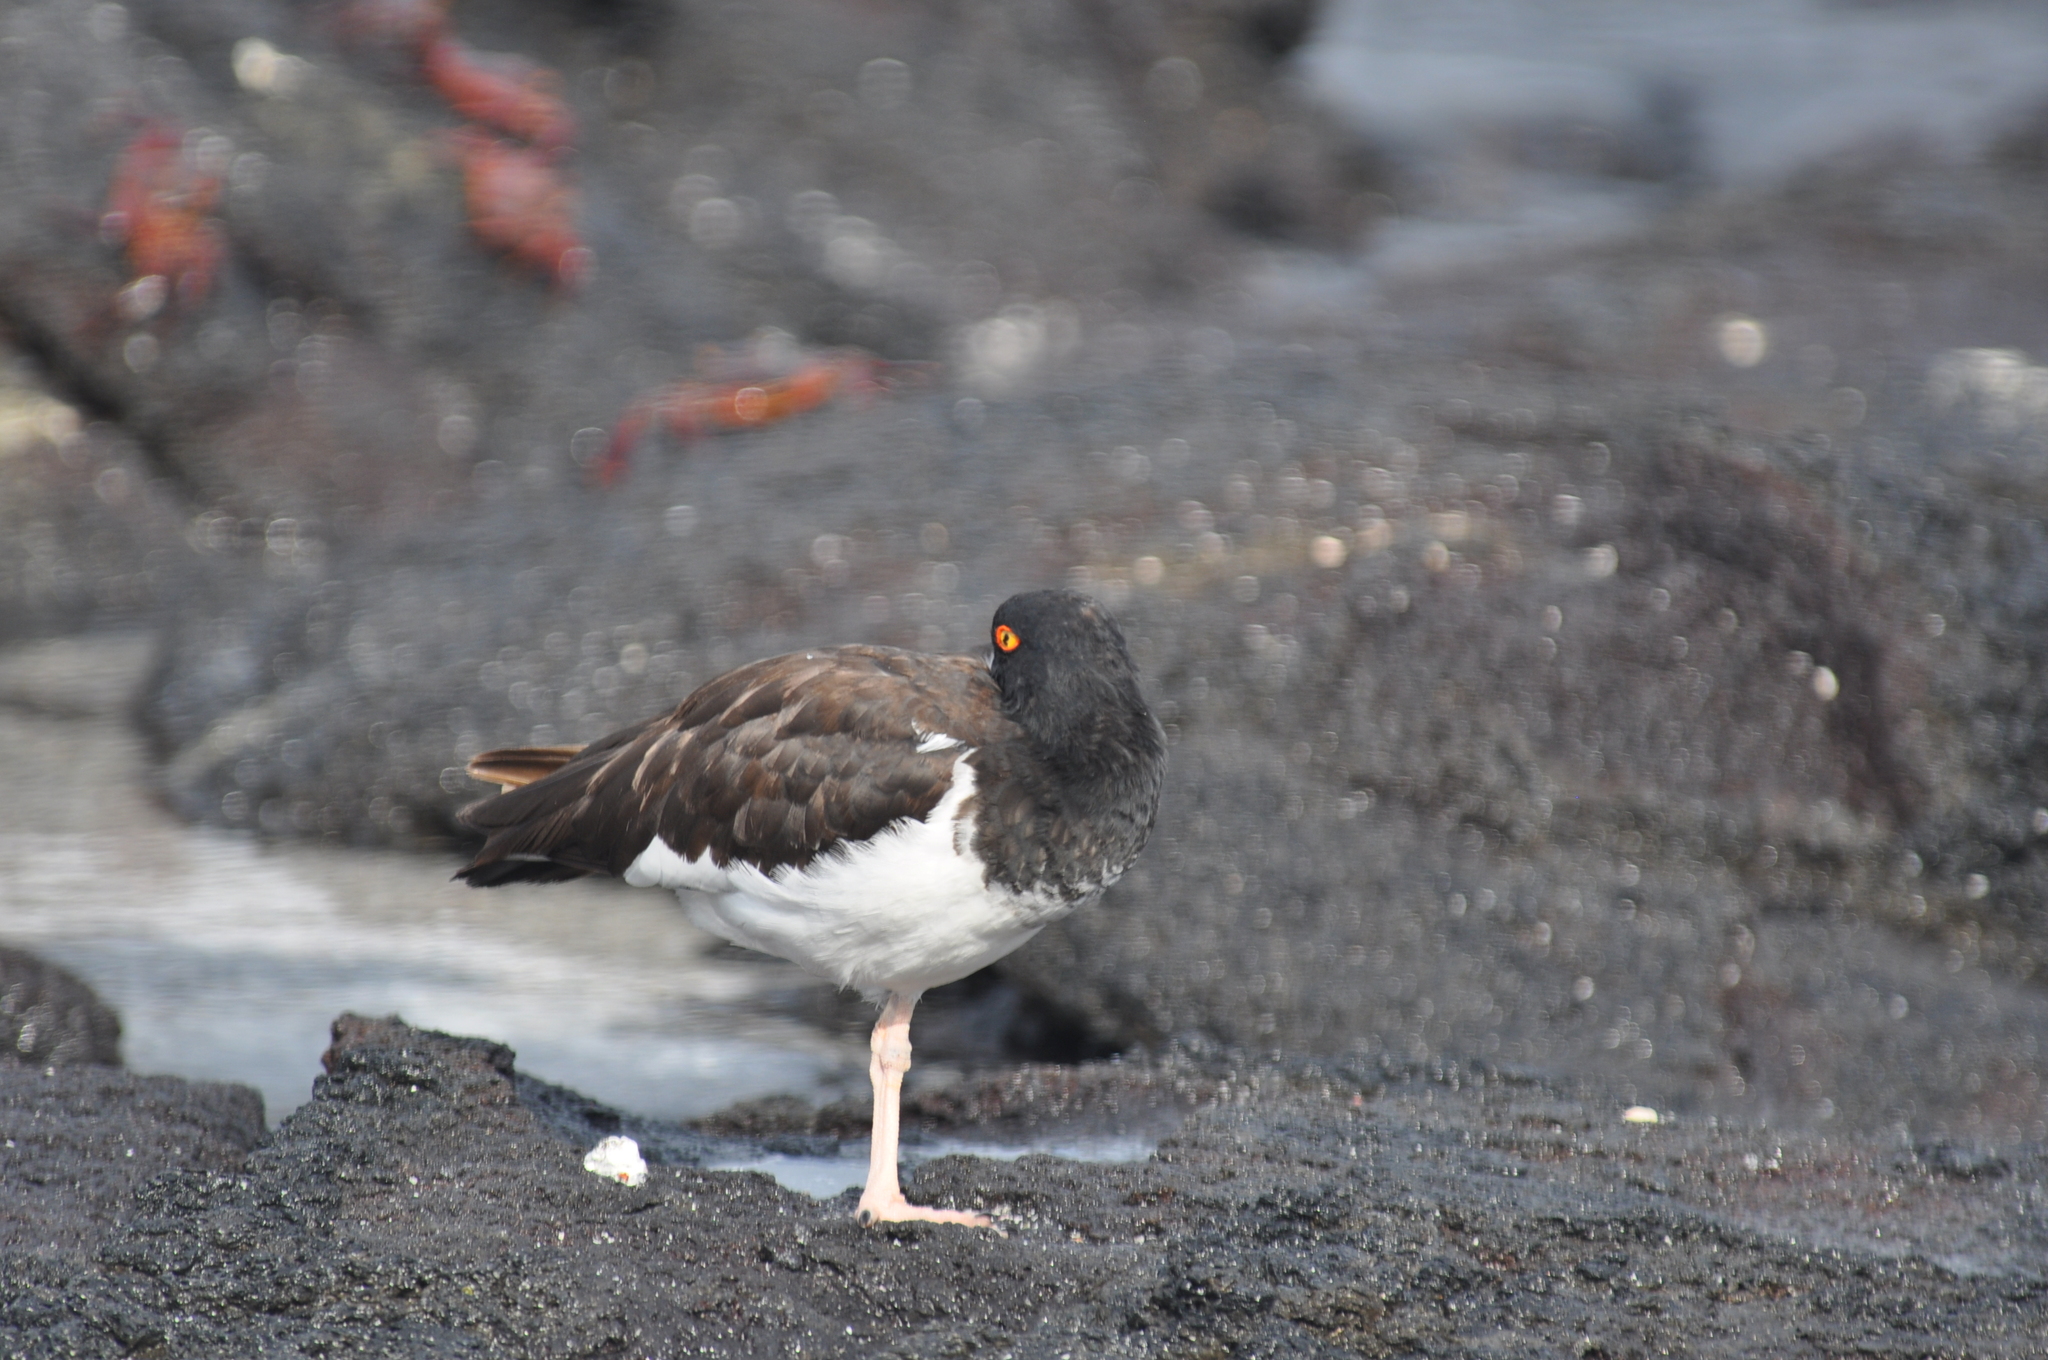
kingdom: Animalia
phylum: Chordata
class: Aves
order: Charadriiformes
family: Haematopodidae
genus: Haematopus
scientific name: Haematopus palliatus
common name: American oystercatcher
